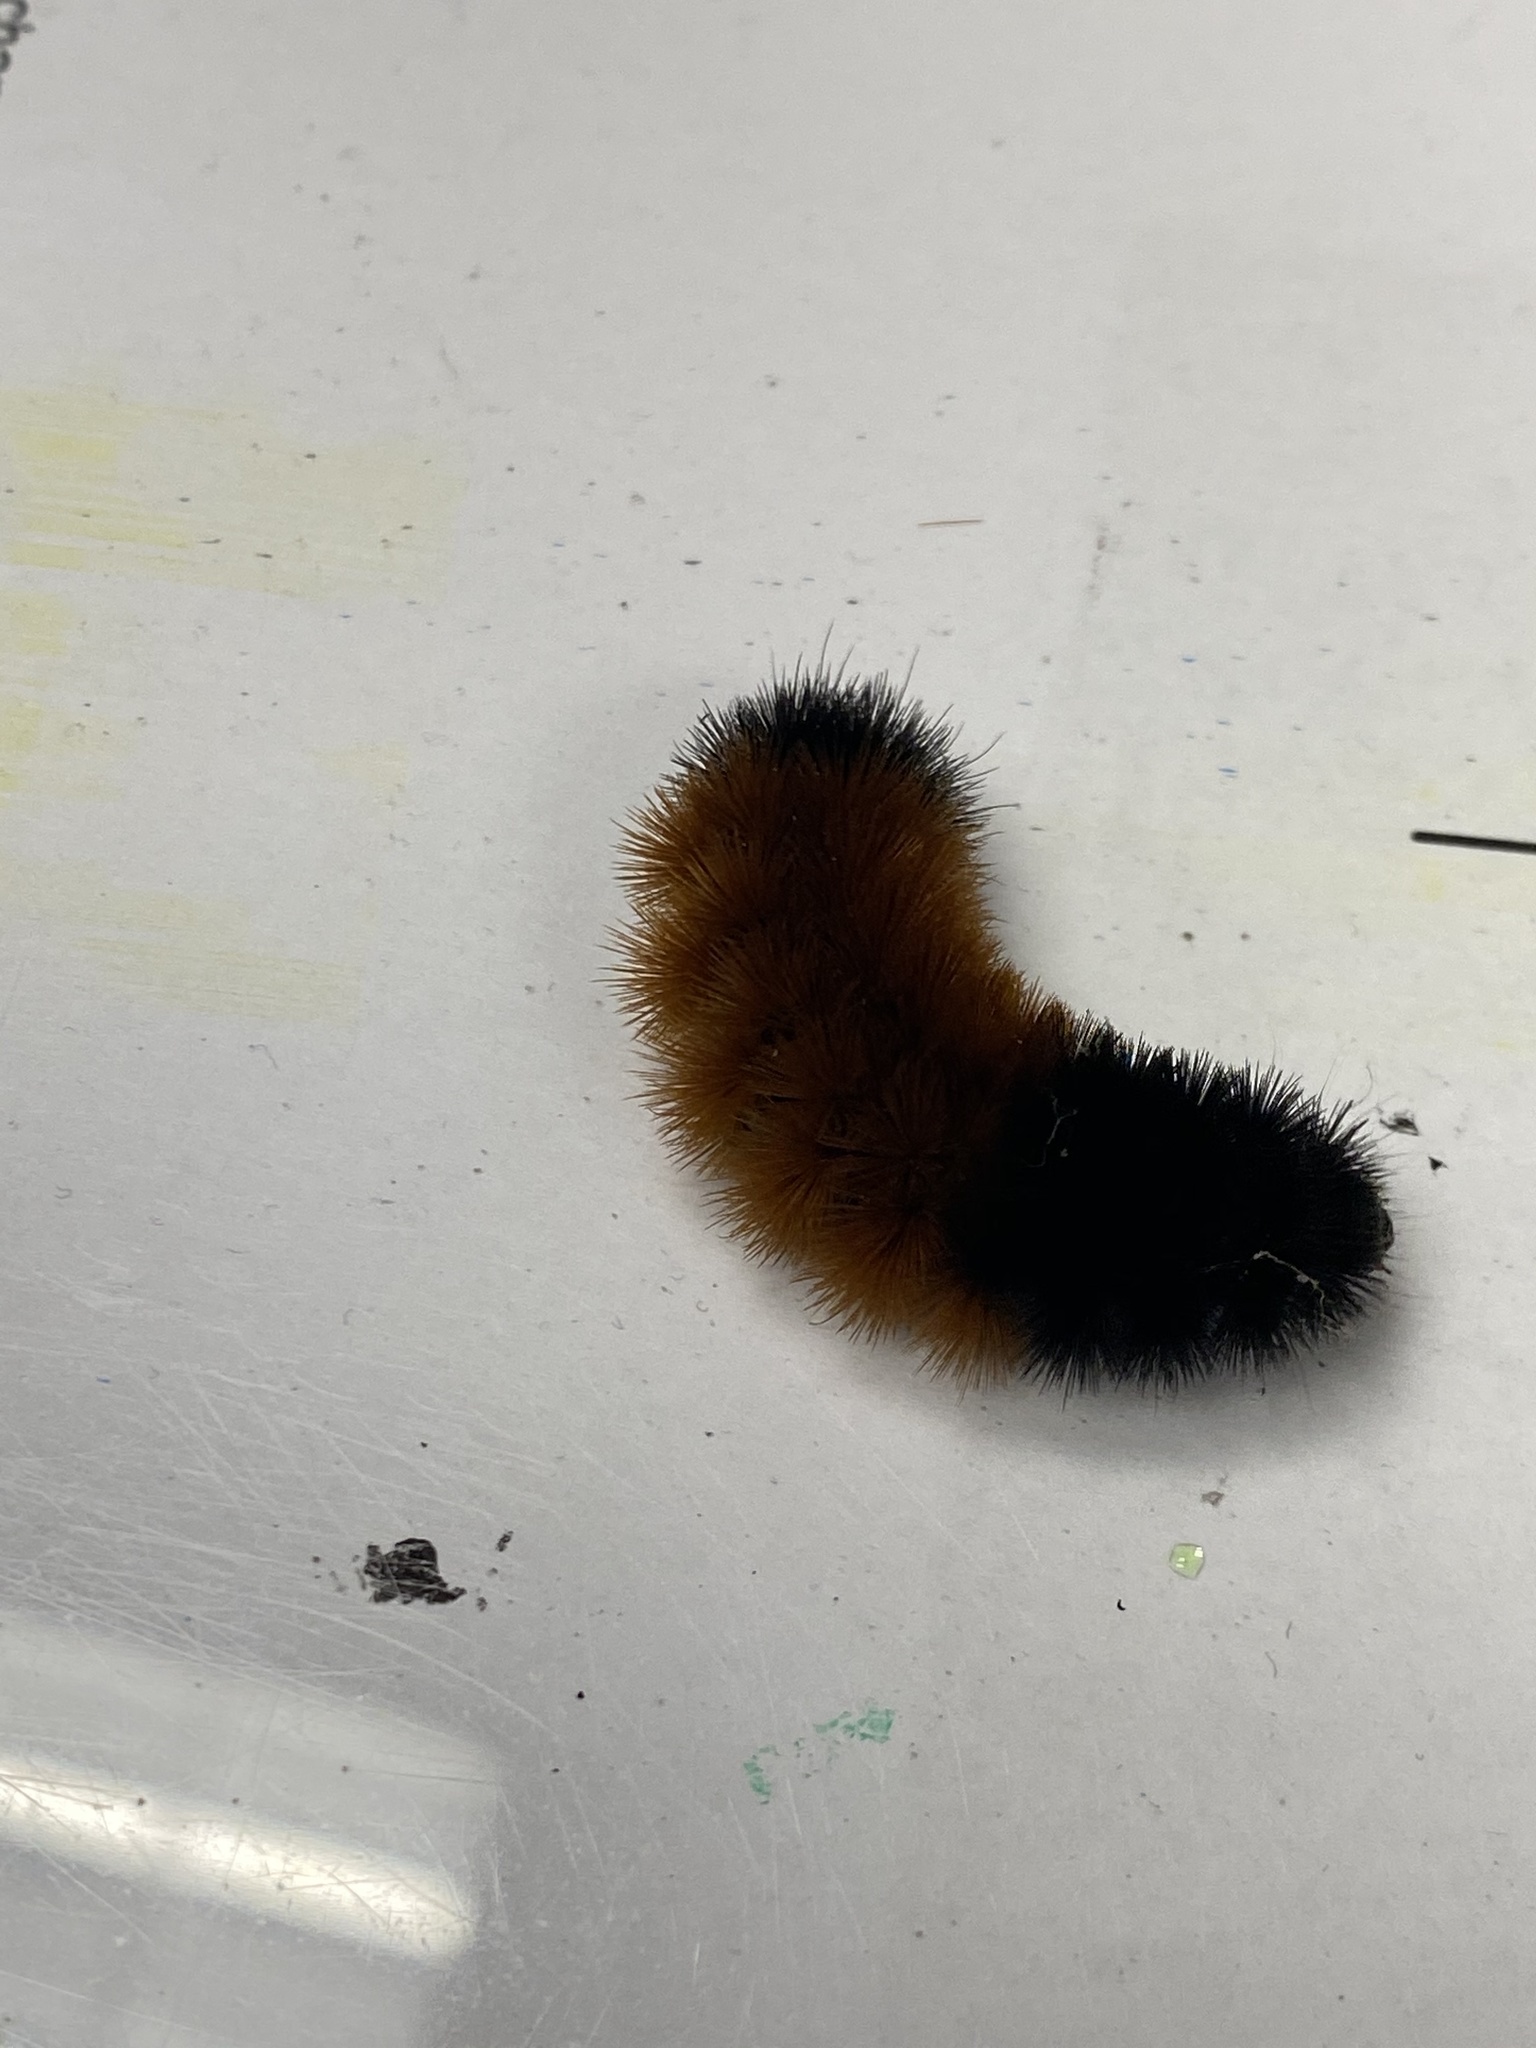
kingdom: Animalia
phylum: Arthropoda
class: Insecta
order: Lepidoptera
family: Erebidae
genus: Pyrrharctia
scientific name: Pyrrharctia isabella
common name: Isabella tiger moth
